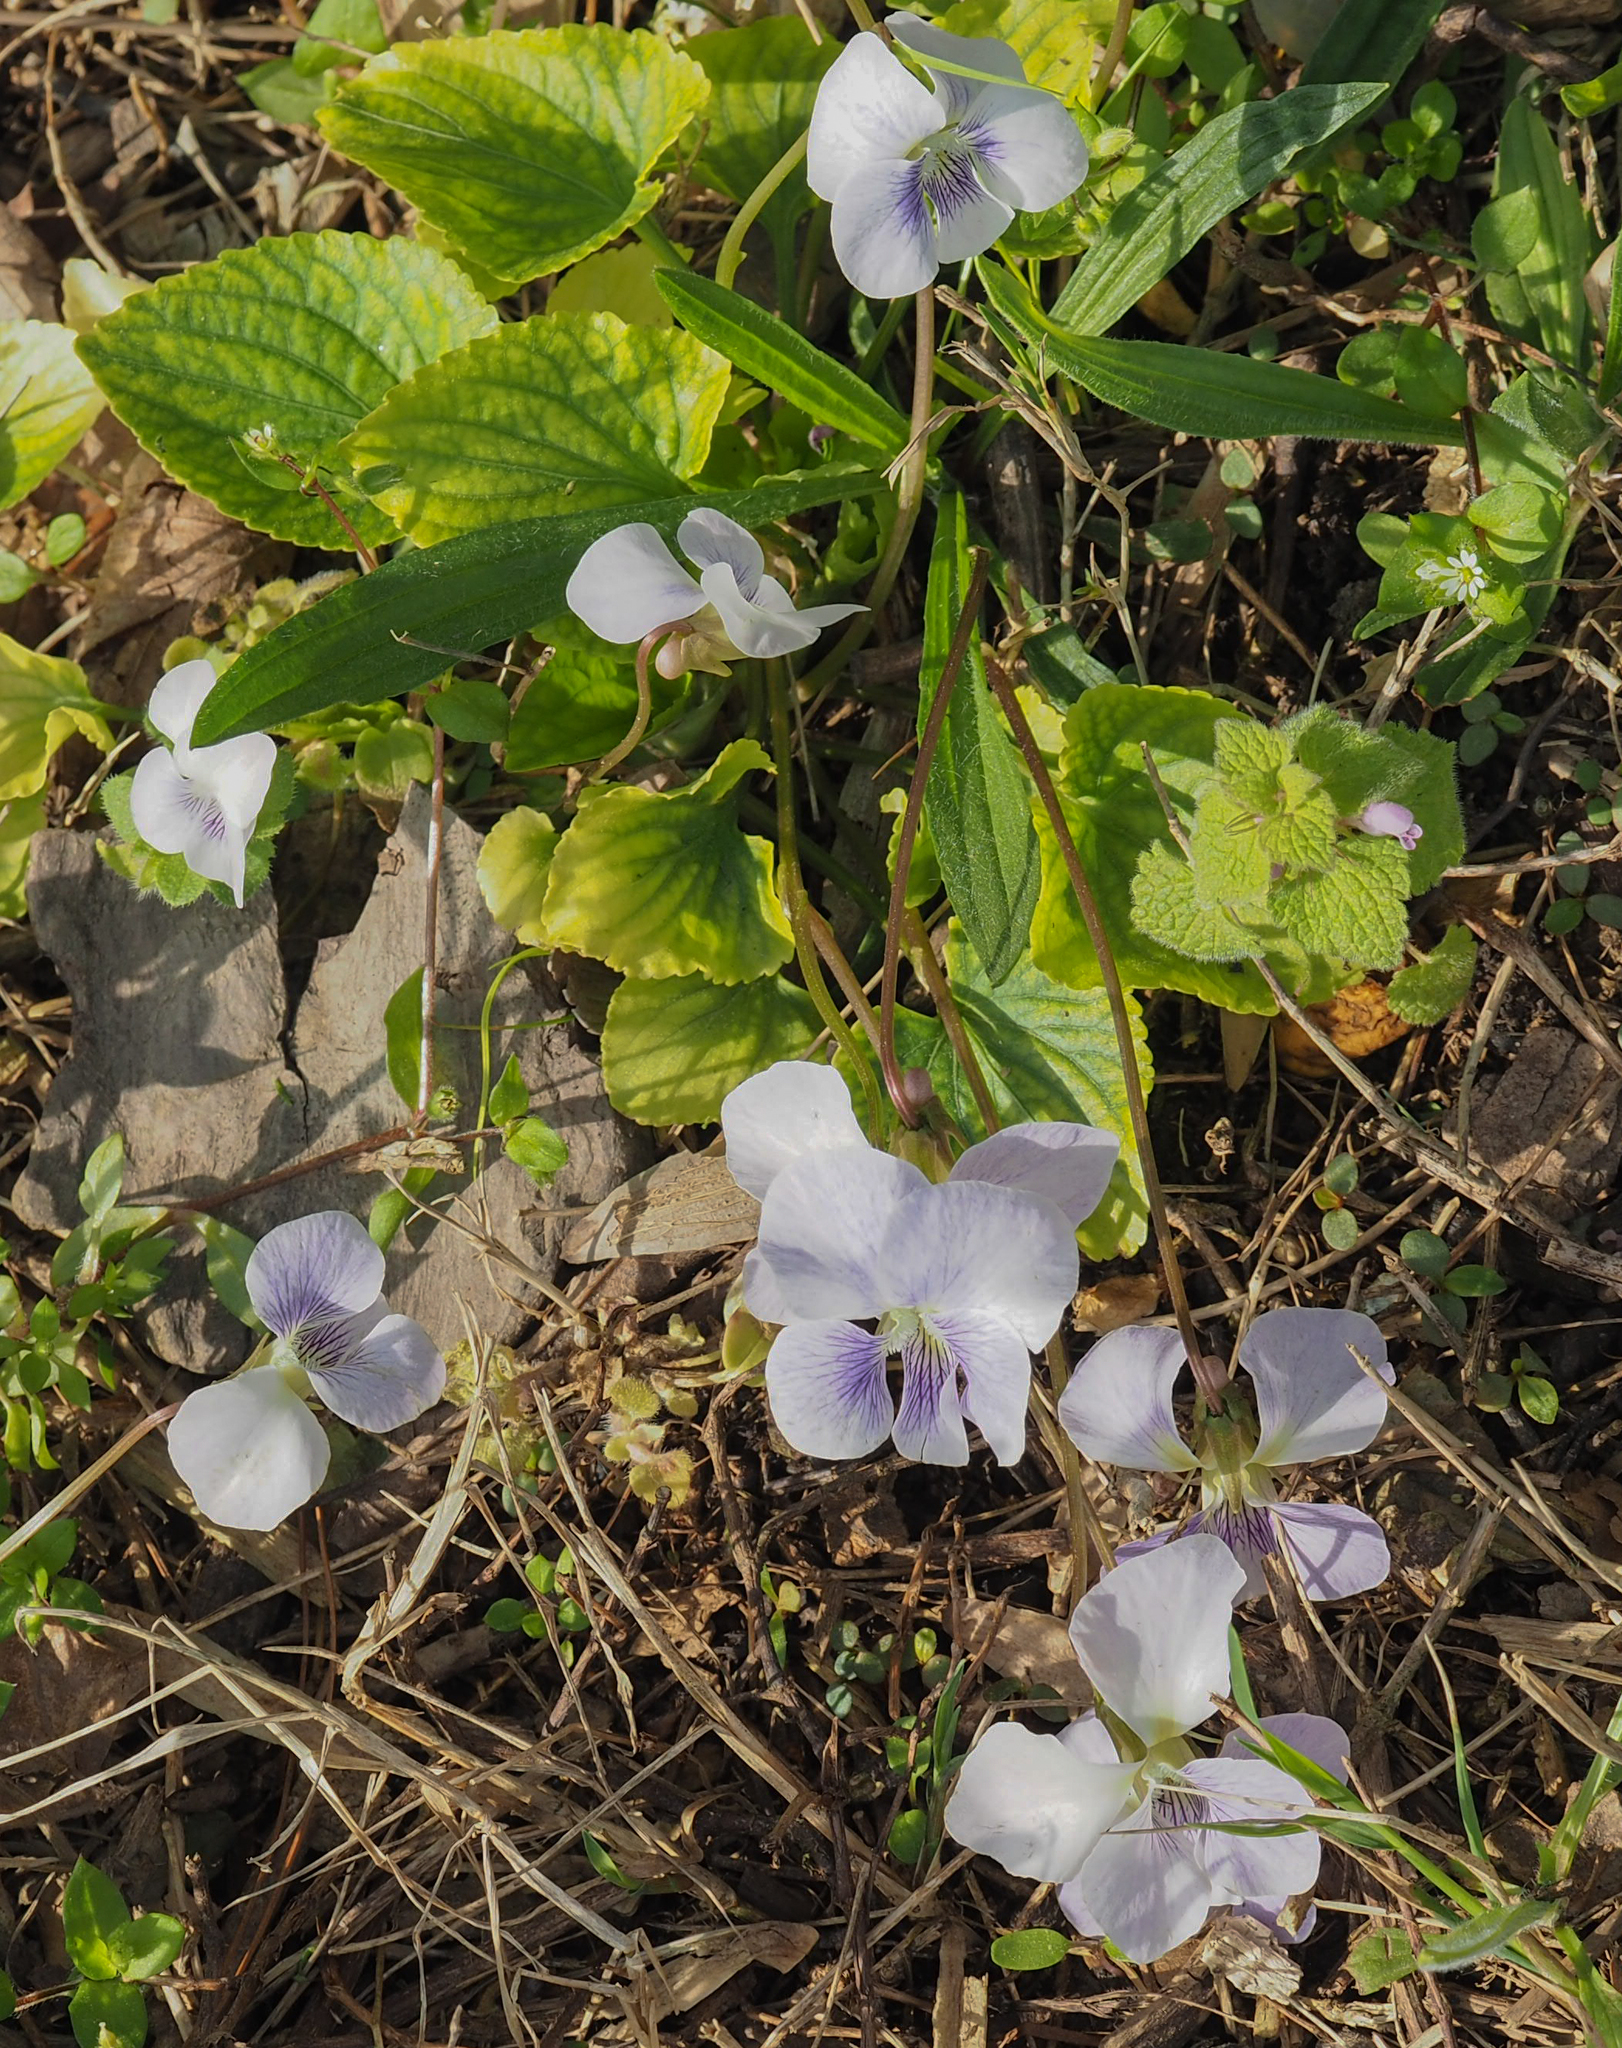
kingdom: Plantae
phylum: Tracheophyta
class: Magnoliopsida
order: Malpighiales
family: Violaceae
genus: Viola
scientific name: Viola sororia
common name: Dooryard violet
